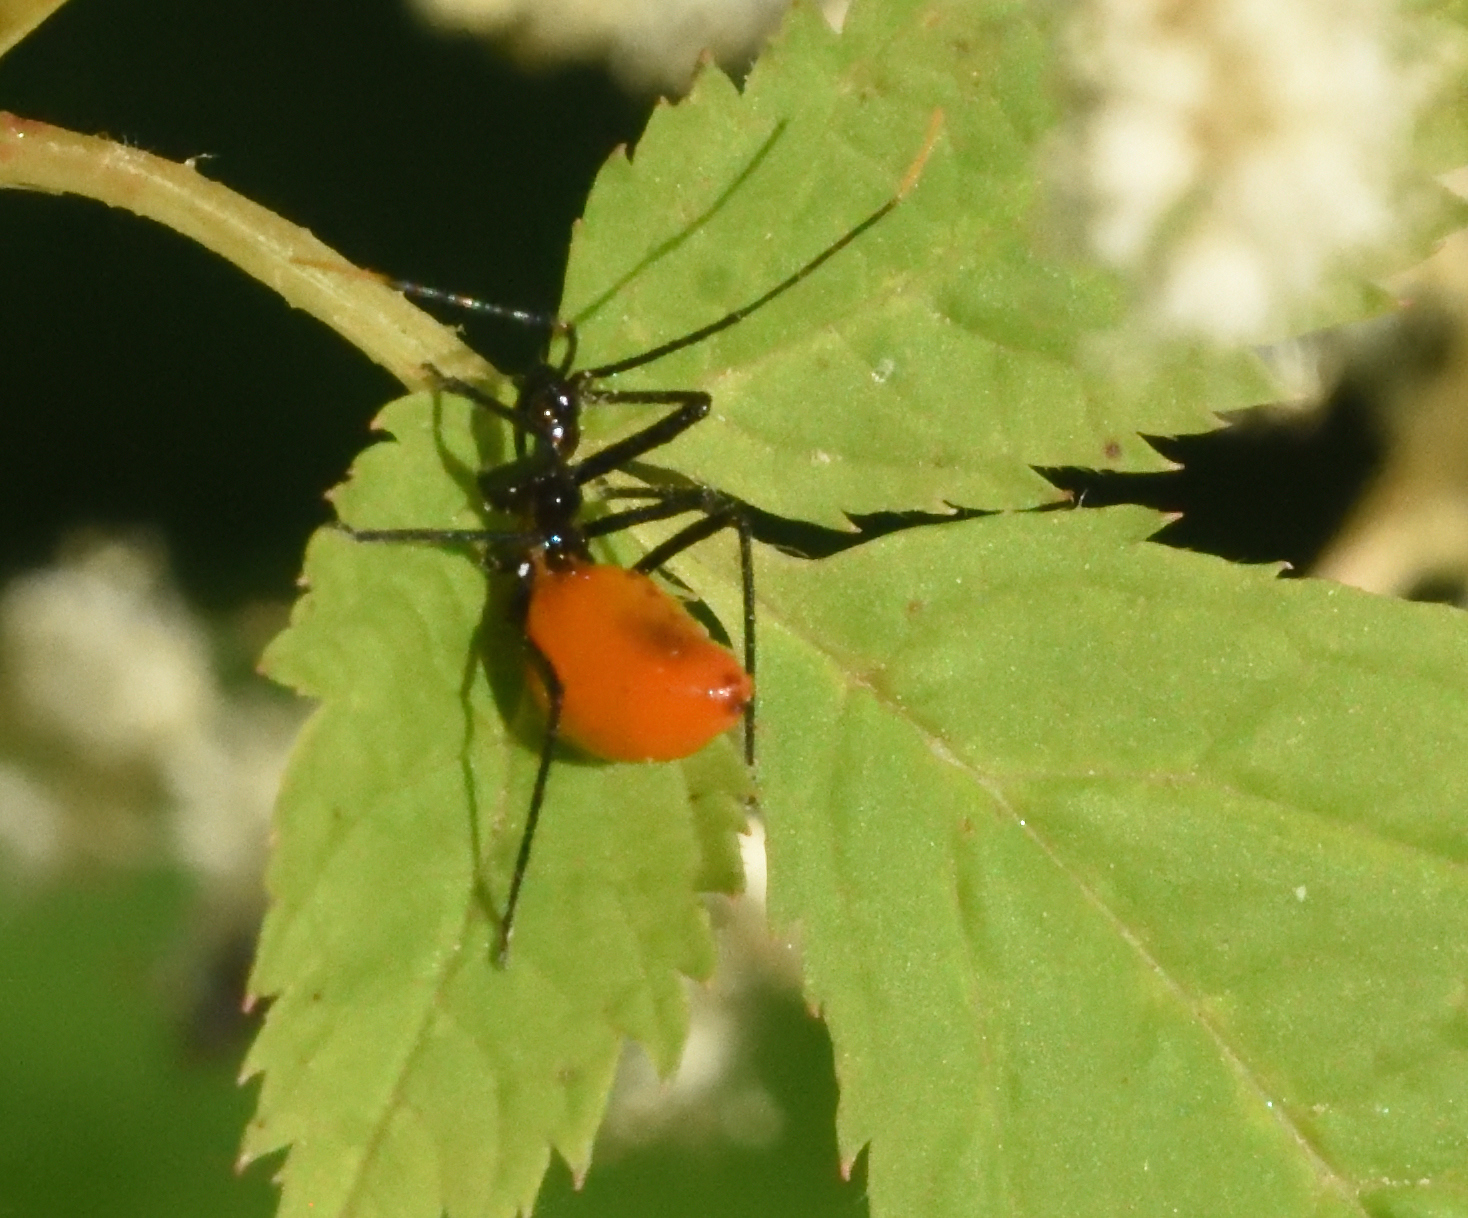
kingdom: Animalia
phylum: Arthropoda
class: Insecta
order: Hemiptera
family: Reduviidae
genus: Arilus
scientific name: Arilus cristatus
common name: North american wheel bug
